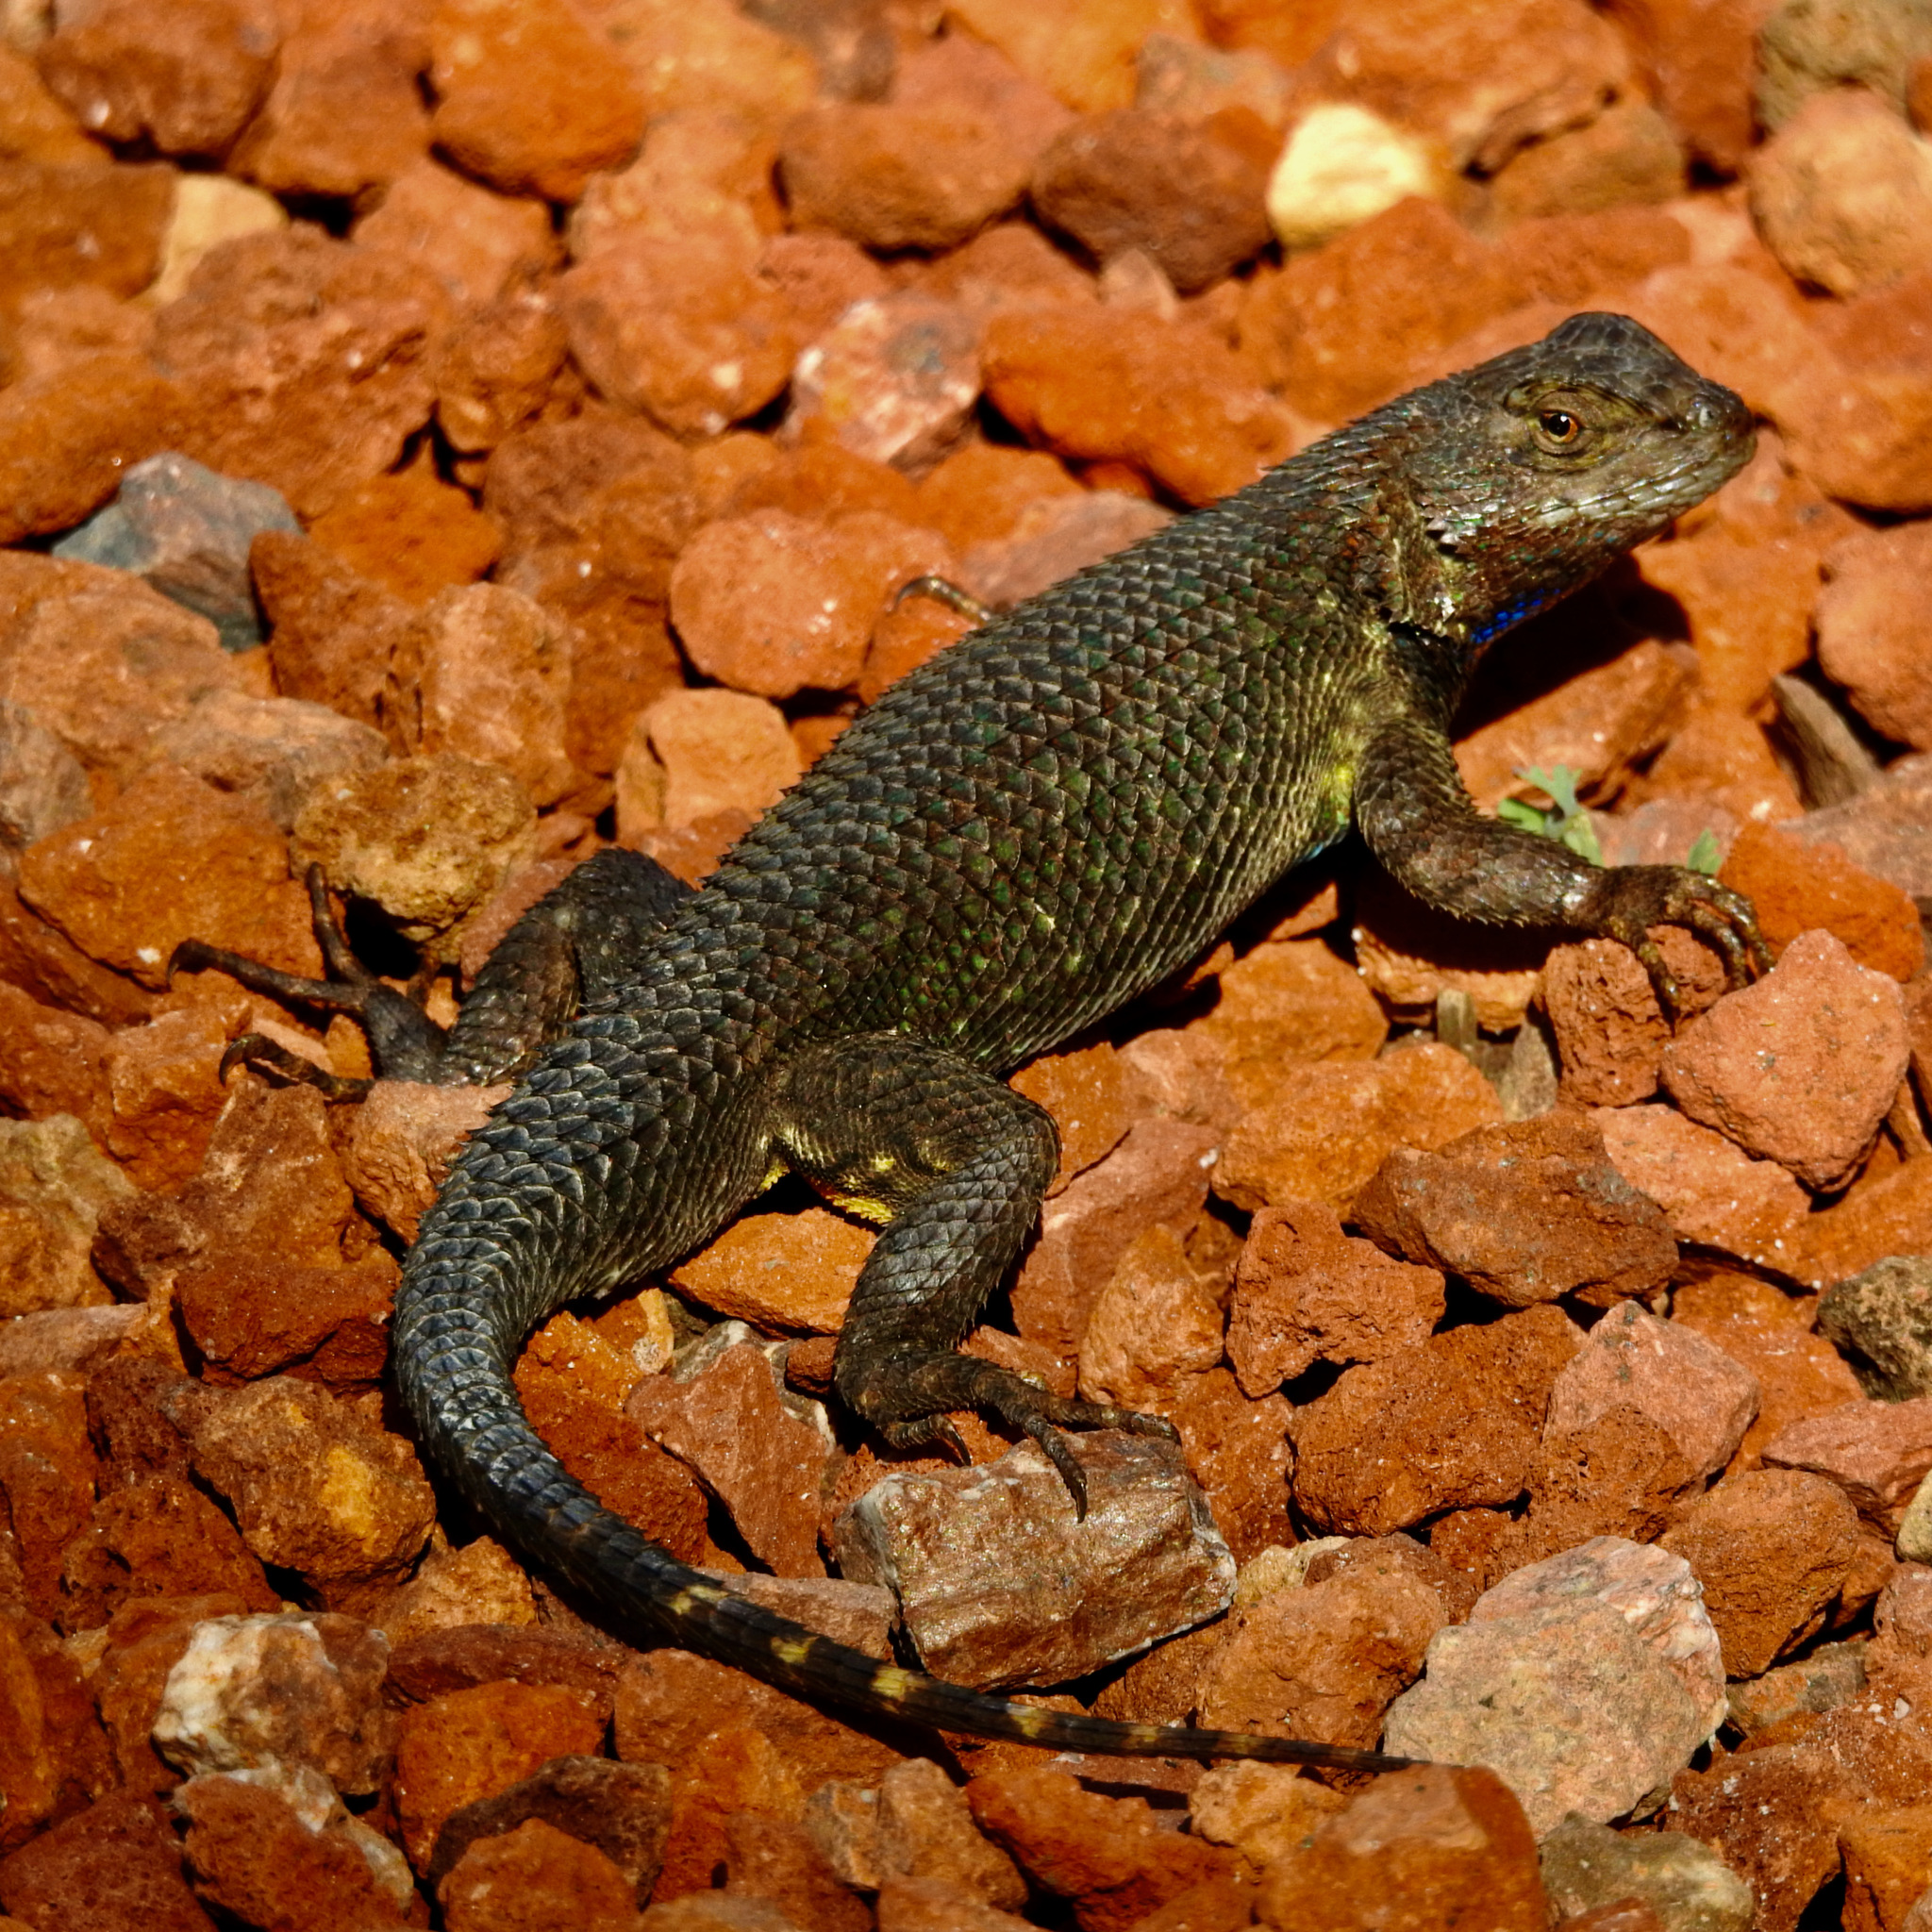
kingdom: Animalia
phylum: Chordata
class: Squamata
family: Phrynosomatidae
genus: Sceloporus
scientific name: Sceloporus occidentalis
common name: Western fence lizard
